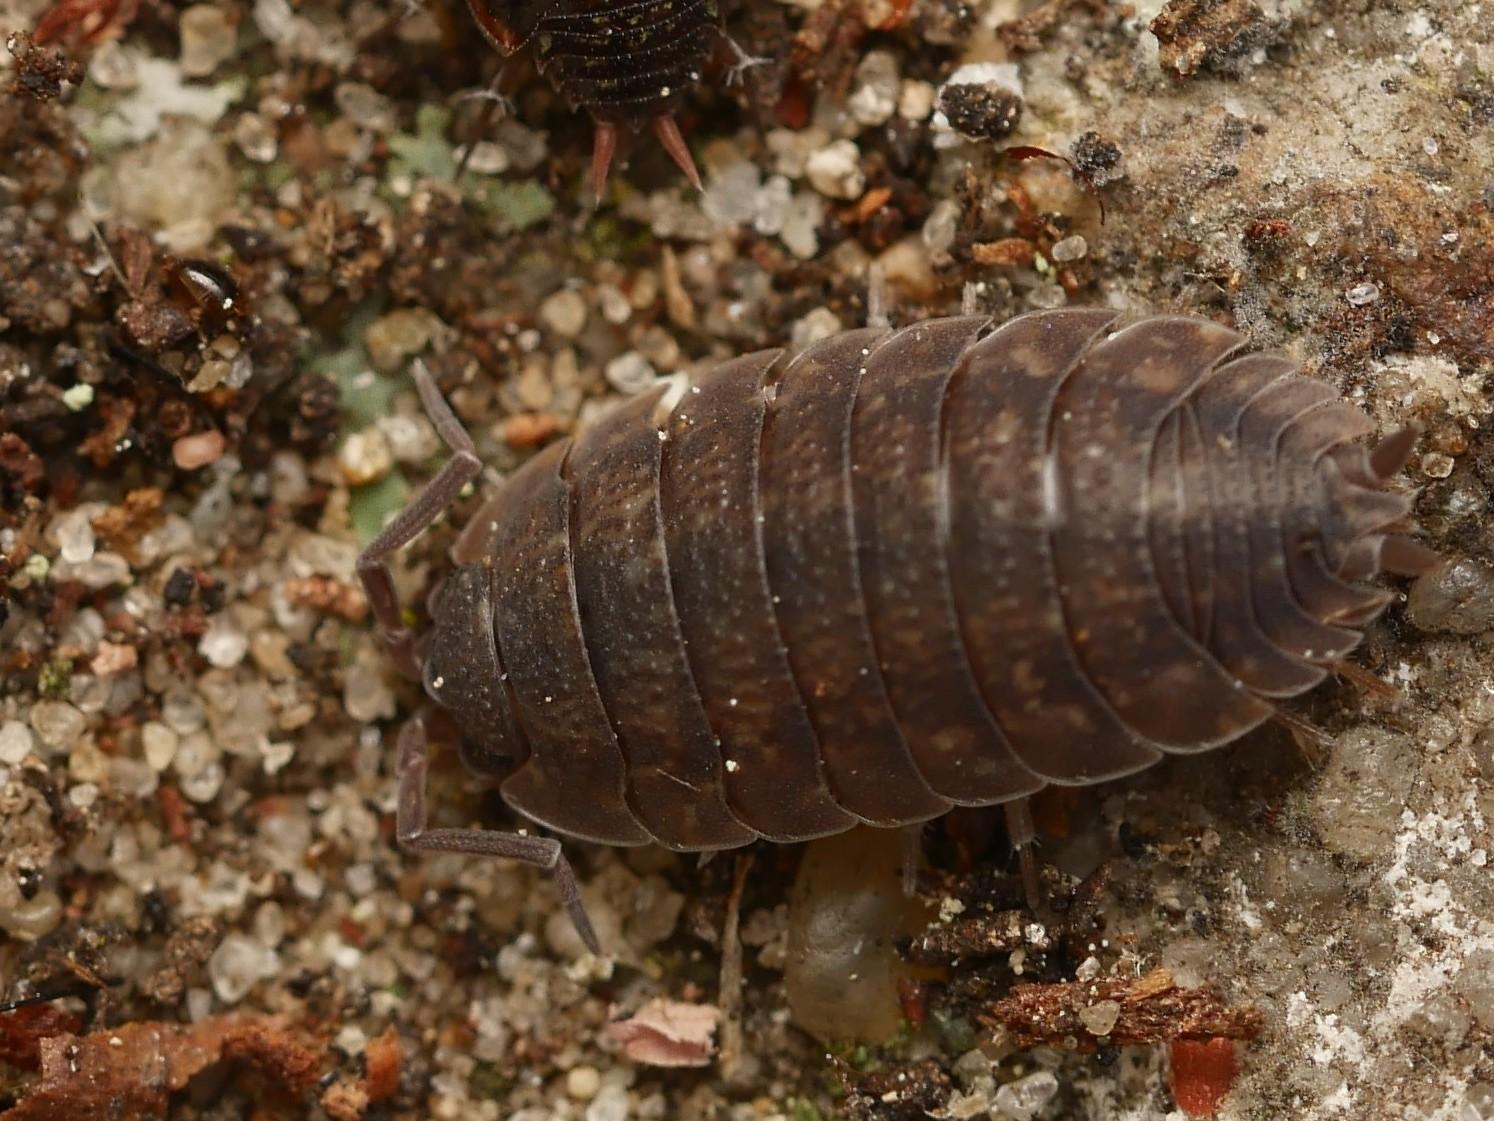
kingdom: Animalia
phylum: Arthropoda
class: Malacostraca
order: Isopoda
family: Porcellionidae
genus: Porcellio
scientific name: Porcellio scaber
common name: Common rough woodlouse
